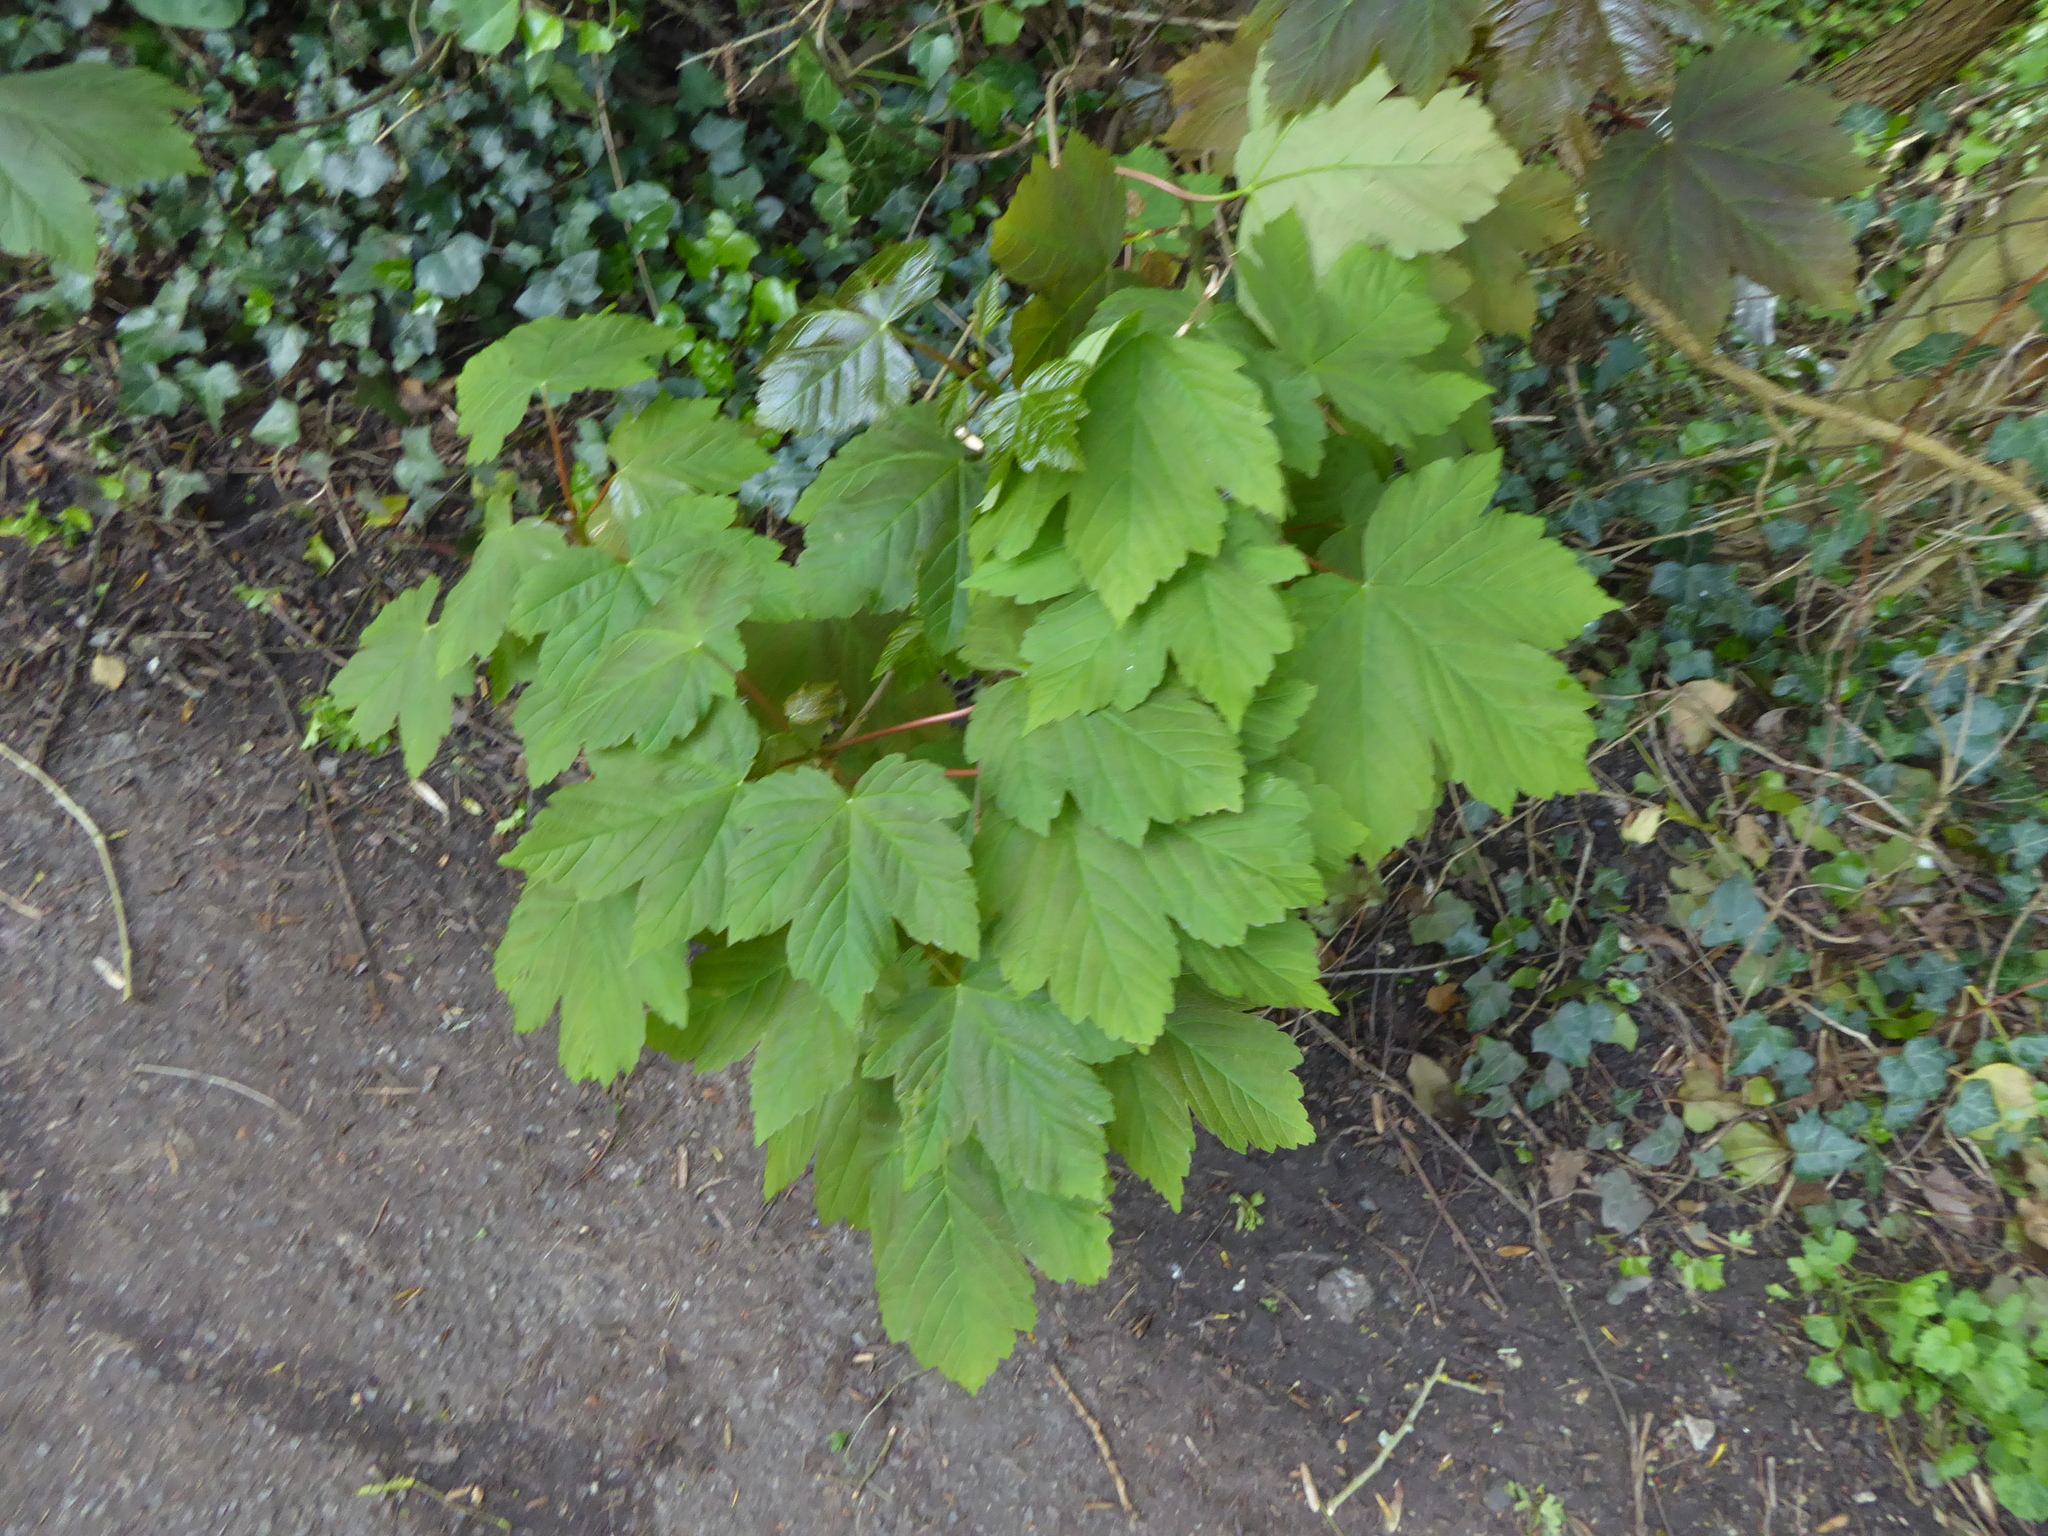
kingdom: Plantae
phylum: Tracheophyta
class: Magnoliopsida
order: Sapindales
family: Sapindaceae
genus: Acer
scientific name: Acer pseudoplatanus
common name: Sycamore
